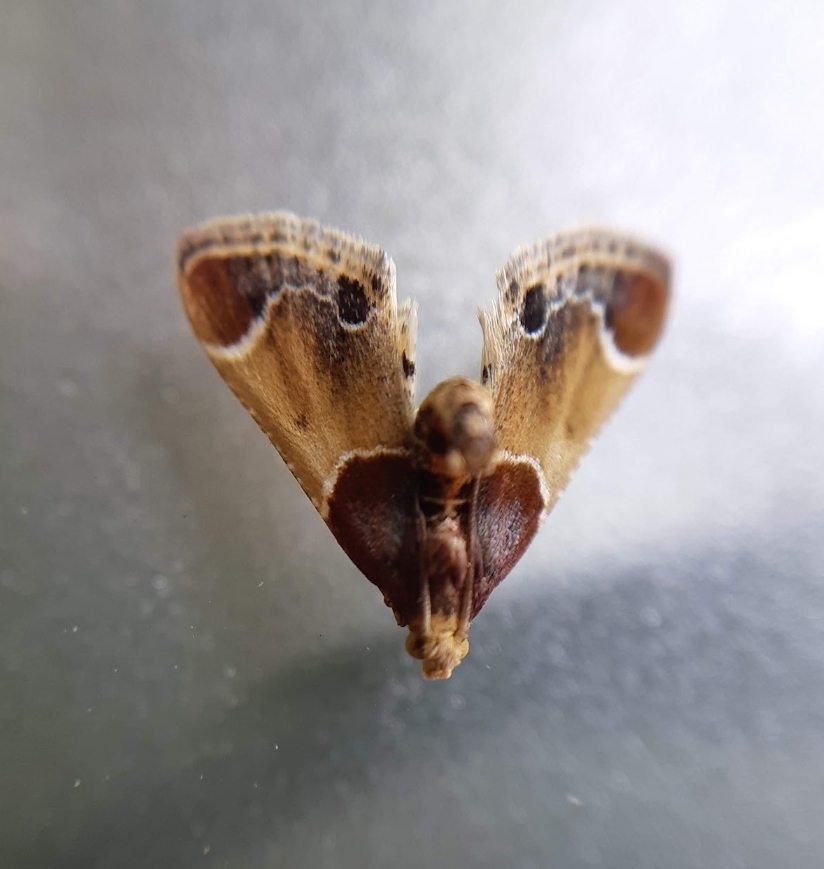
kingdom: Animalia
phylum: Arthropoda
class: Insecta
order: Lepidoptera
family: Pyralidae
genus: Pyralis
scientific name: Pyralis farinalis
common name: Meal moth
